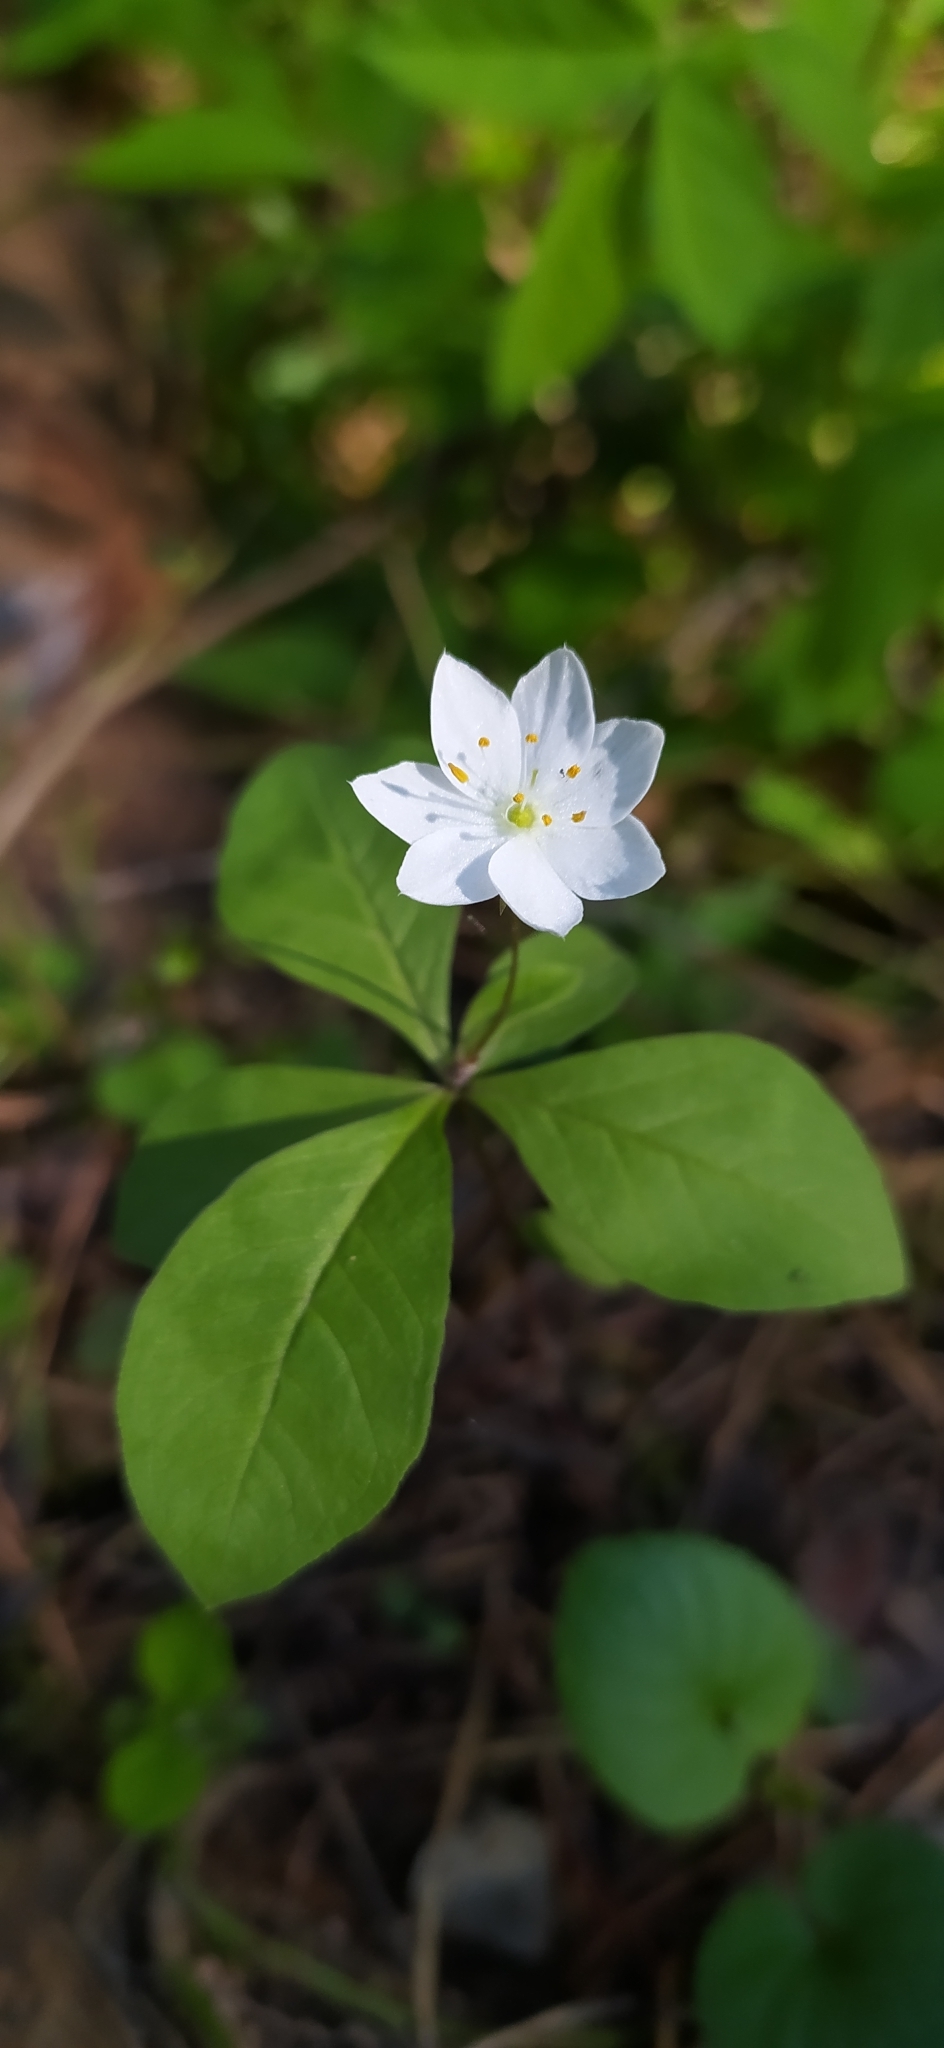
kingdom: Plantae
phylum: Tracheophyta
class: Magnoliopsida
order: Ericales
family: Primulaceae
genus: Lysimachia
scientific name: Lysimachia europaea
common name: Arctic starflower
